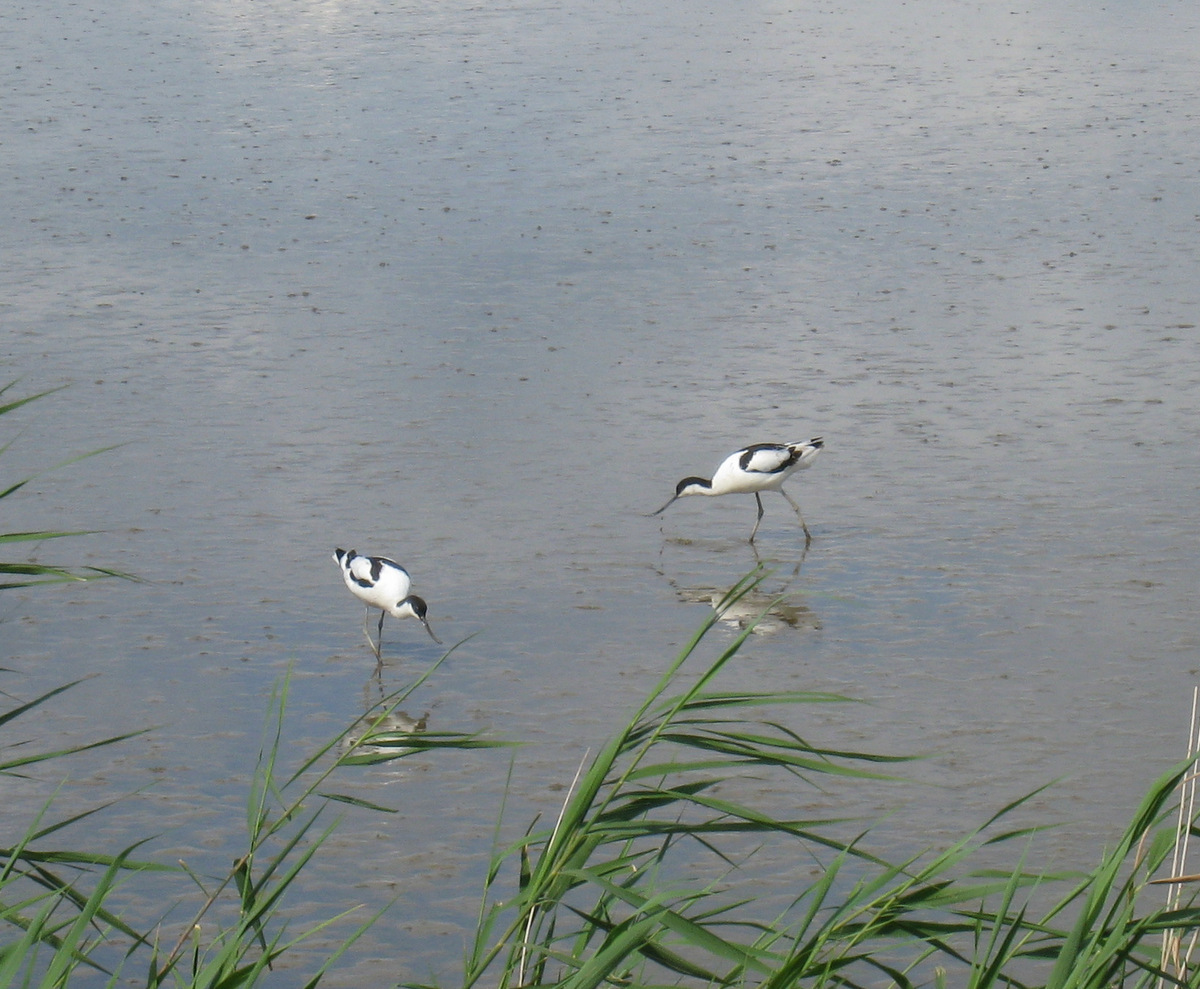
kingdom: Animalia
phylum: Chordata
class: Aves
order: Charadriiformes
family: Recurvirostridae
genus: Recurvirostra
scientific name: Recurvirostra avosetta
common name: Pied avocet
